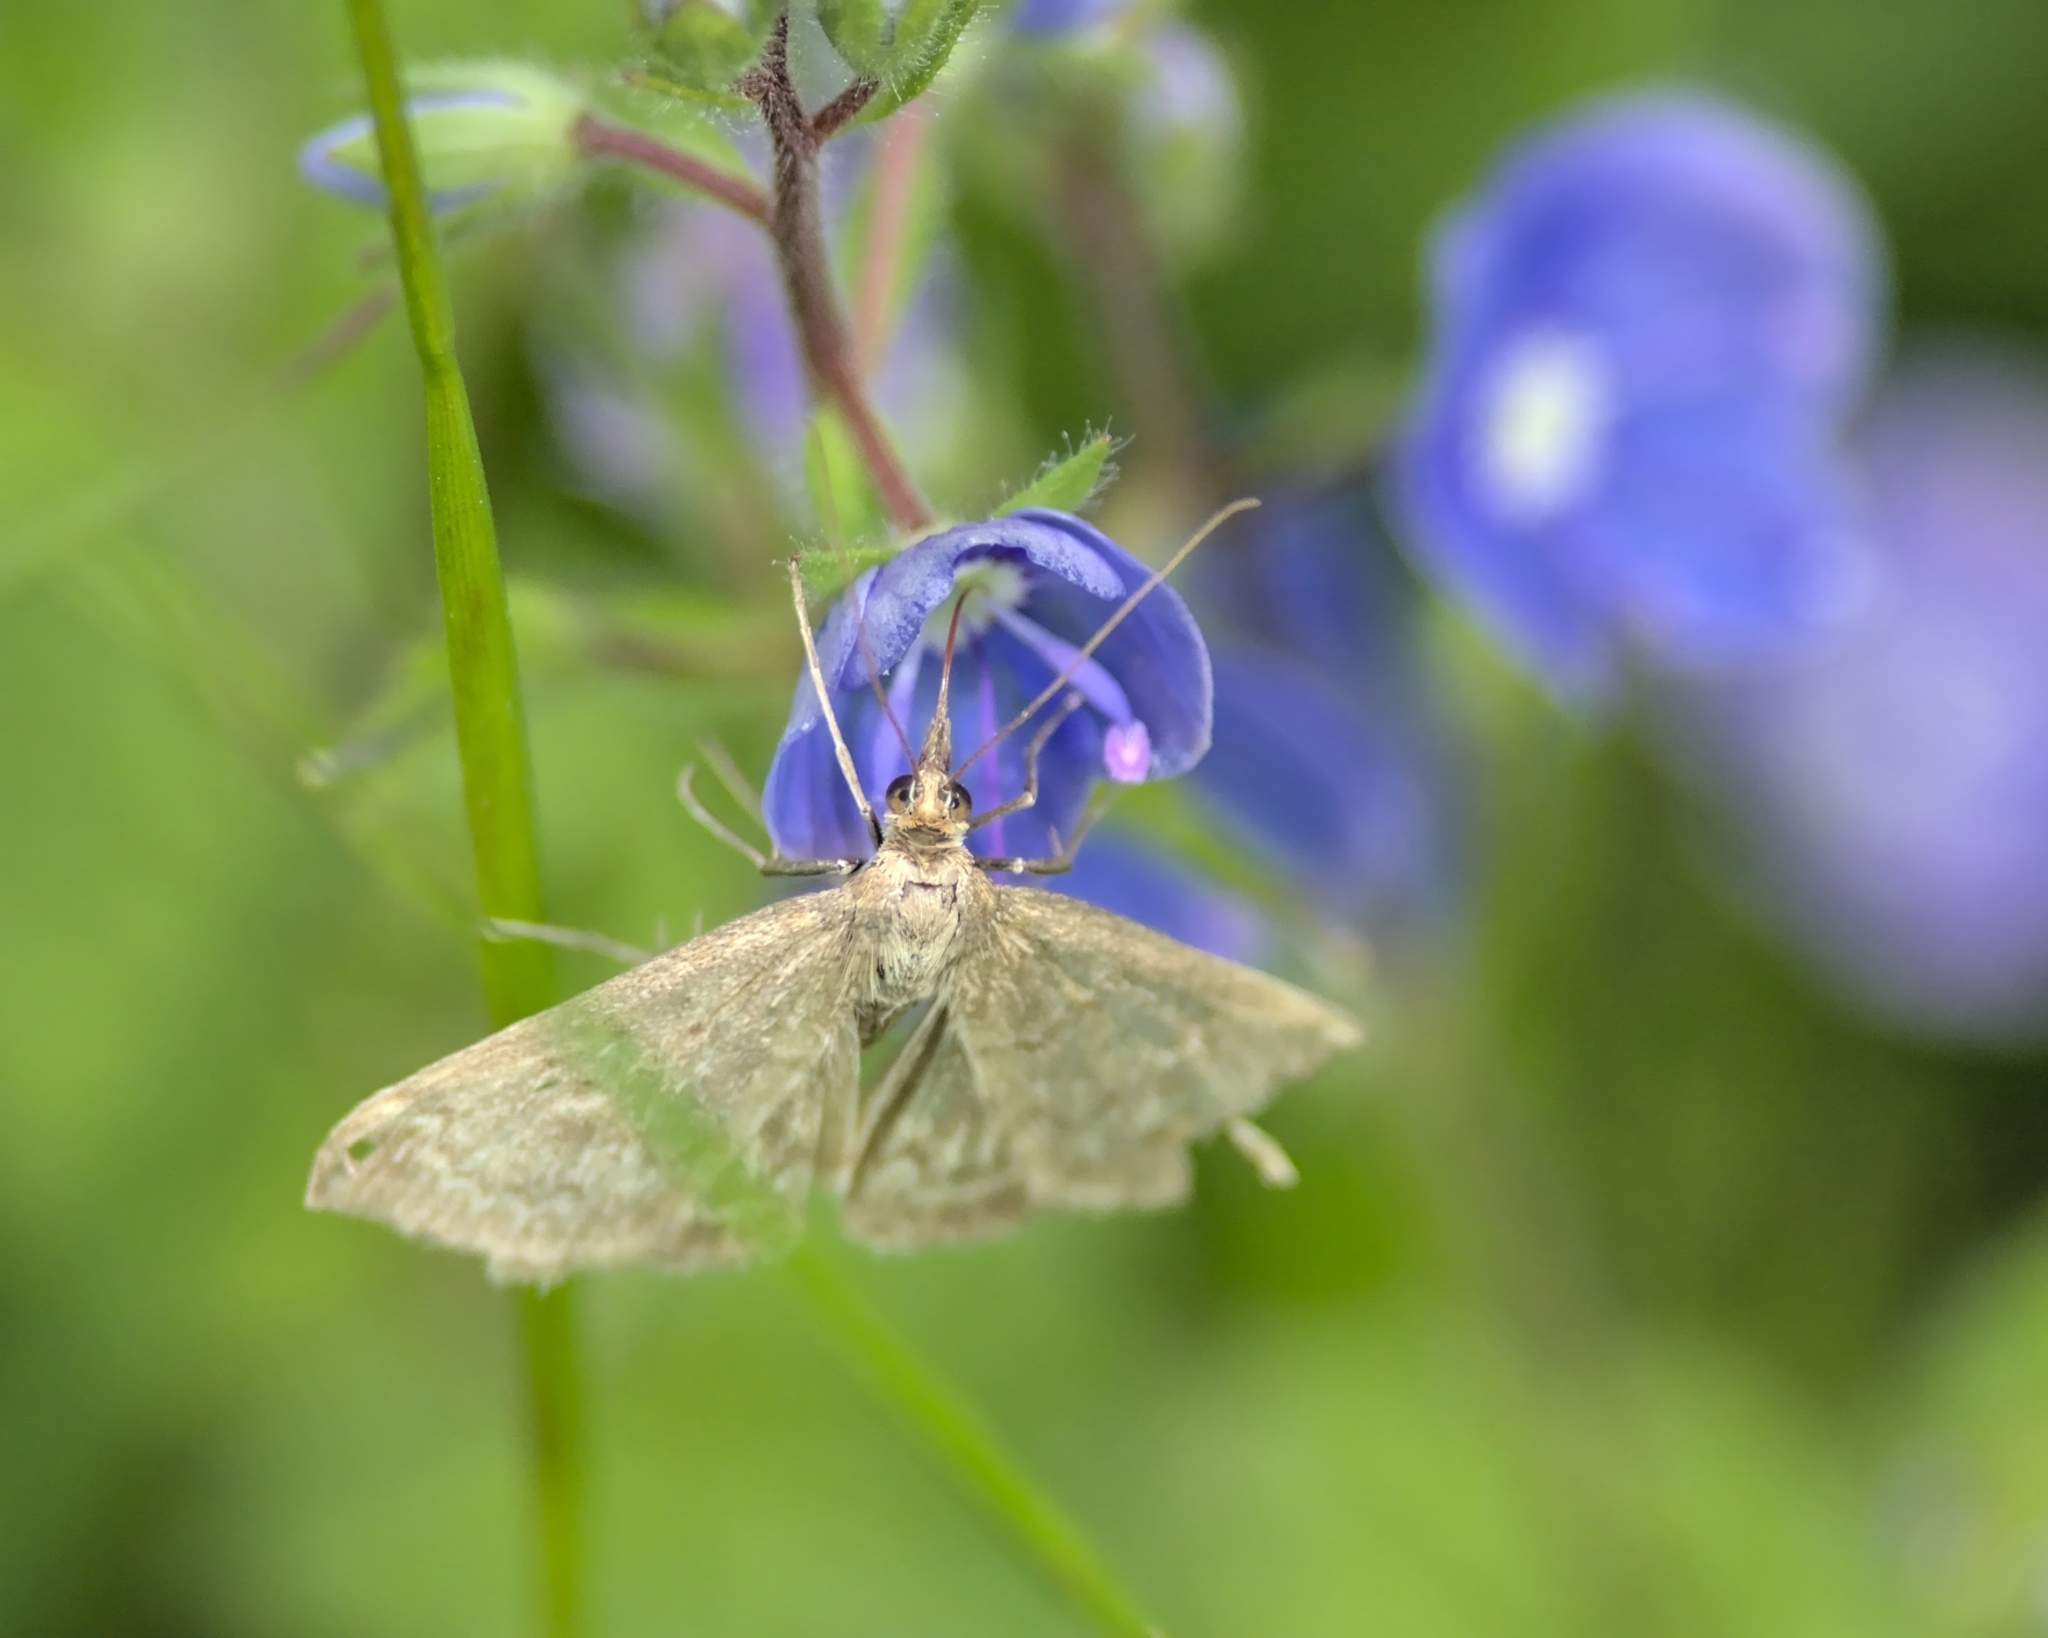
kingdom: Animalia
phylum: Arthropoda
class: Insecta
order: Lepidoptera
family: Crambidae
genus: Anania
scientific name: Anania fuscalis
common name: Cinerous pearl
